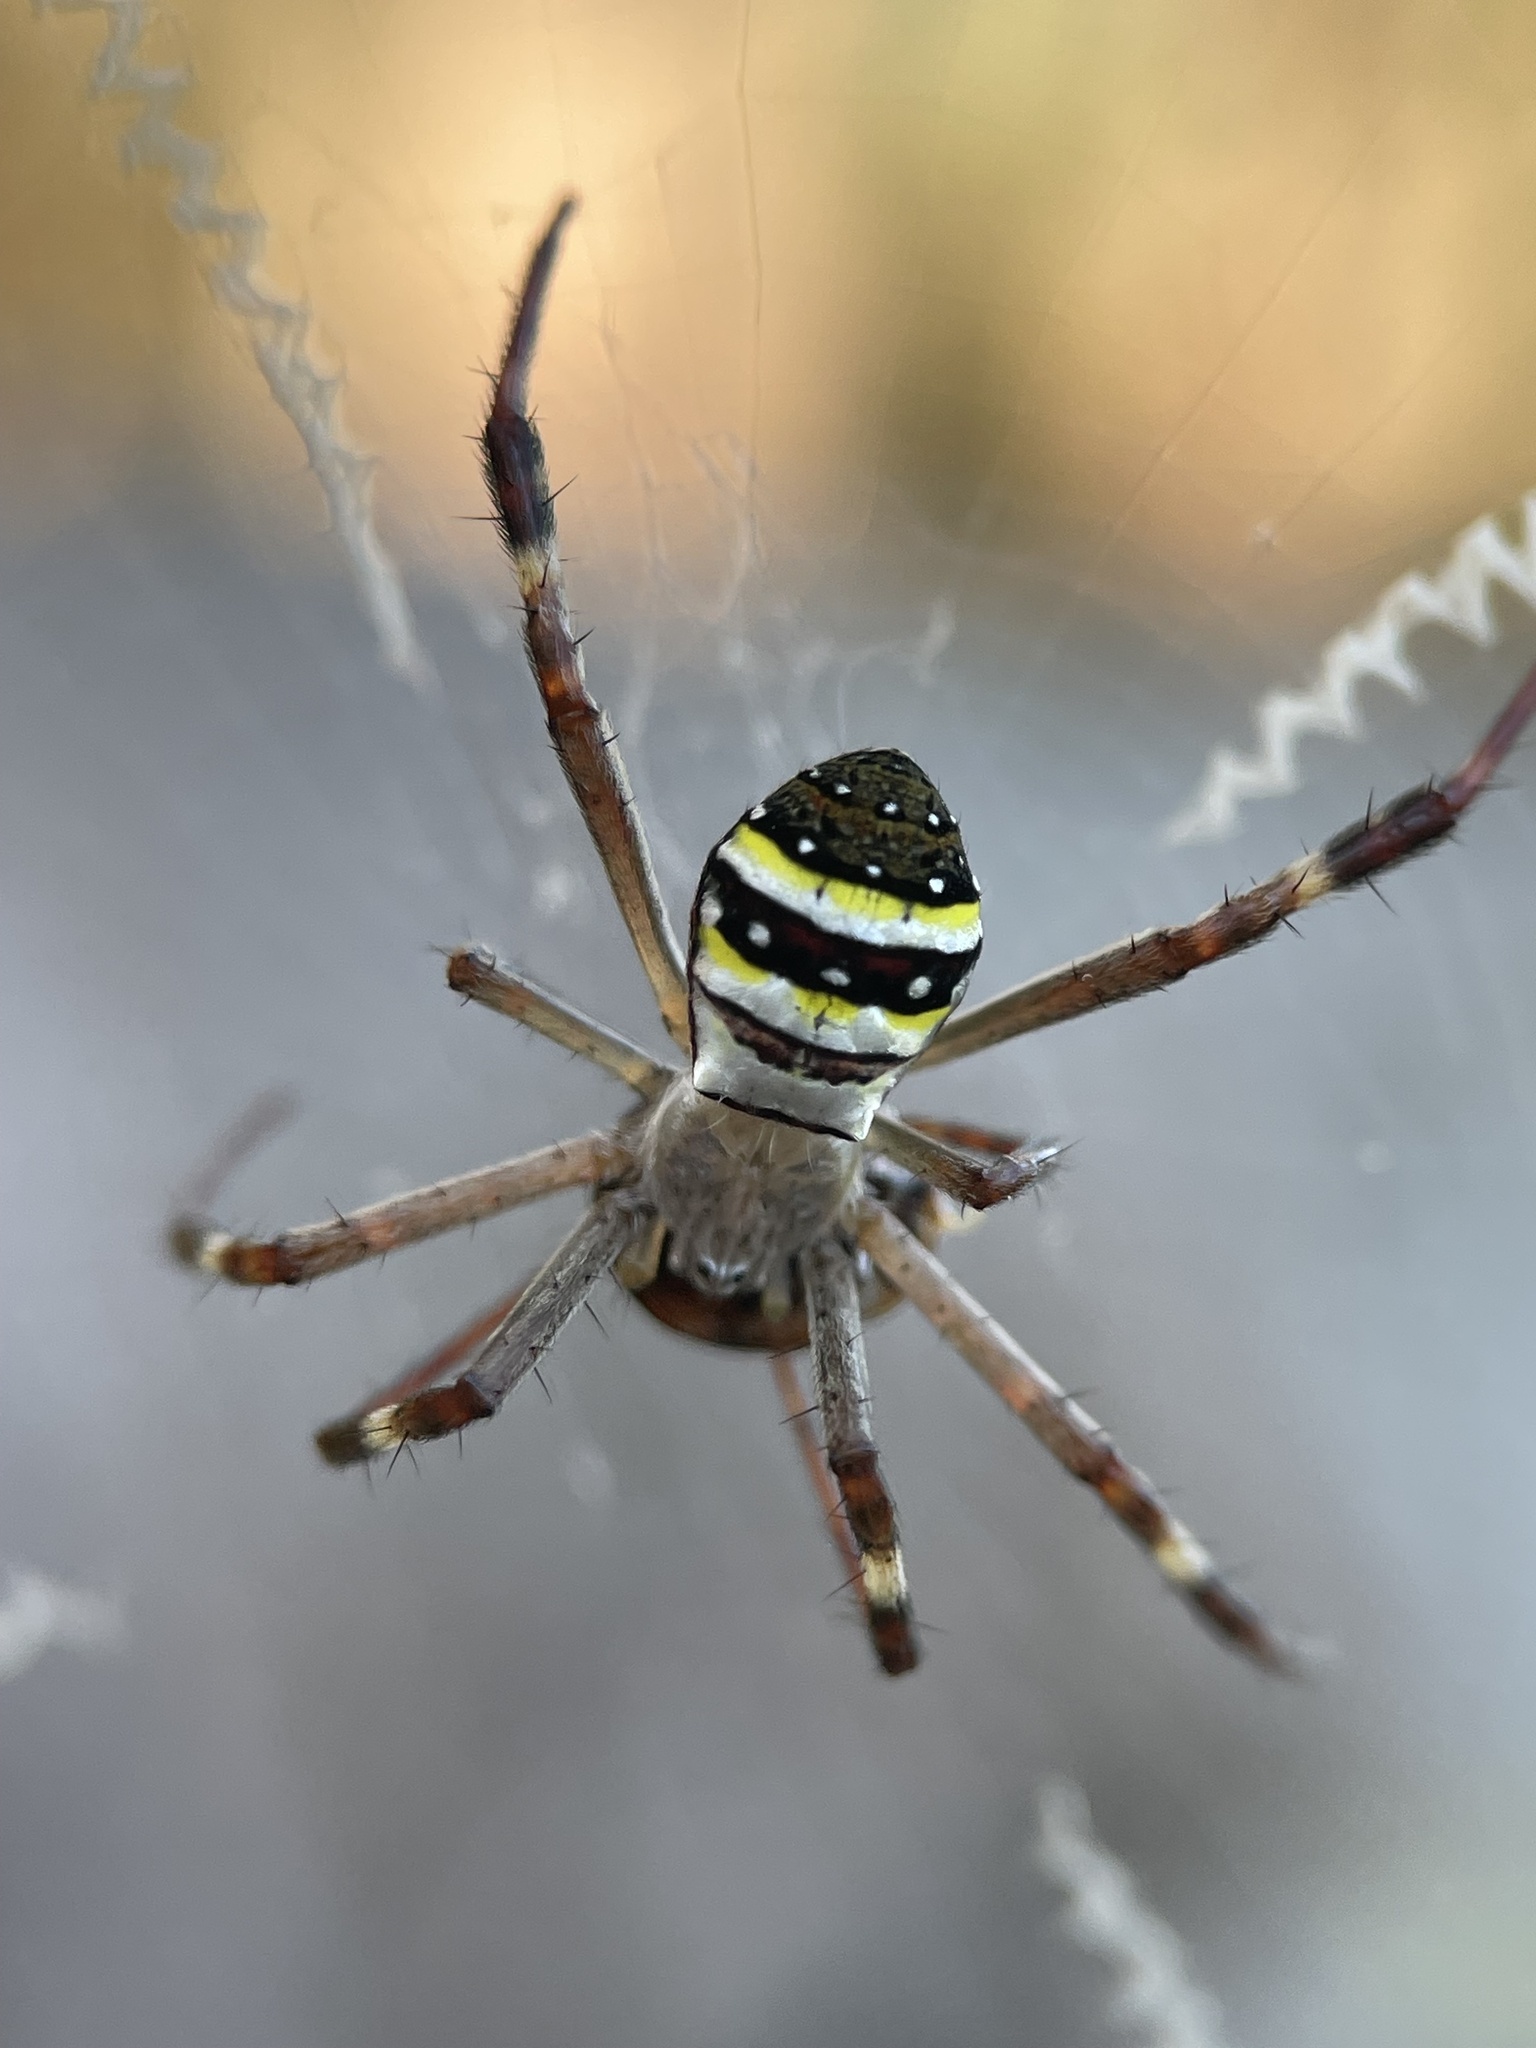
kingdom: Animalia
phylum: Arthropoda
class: Arachnida
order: Araneae
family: Araneidae
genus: Argiope
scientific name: Argiope keyserlingi
